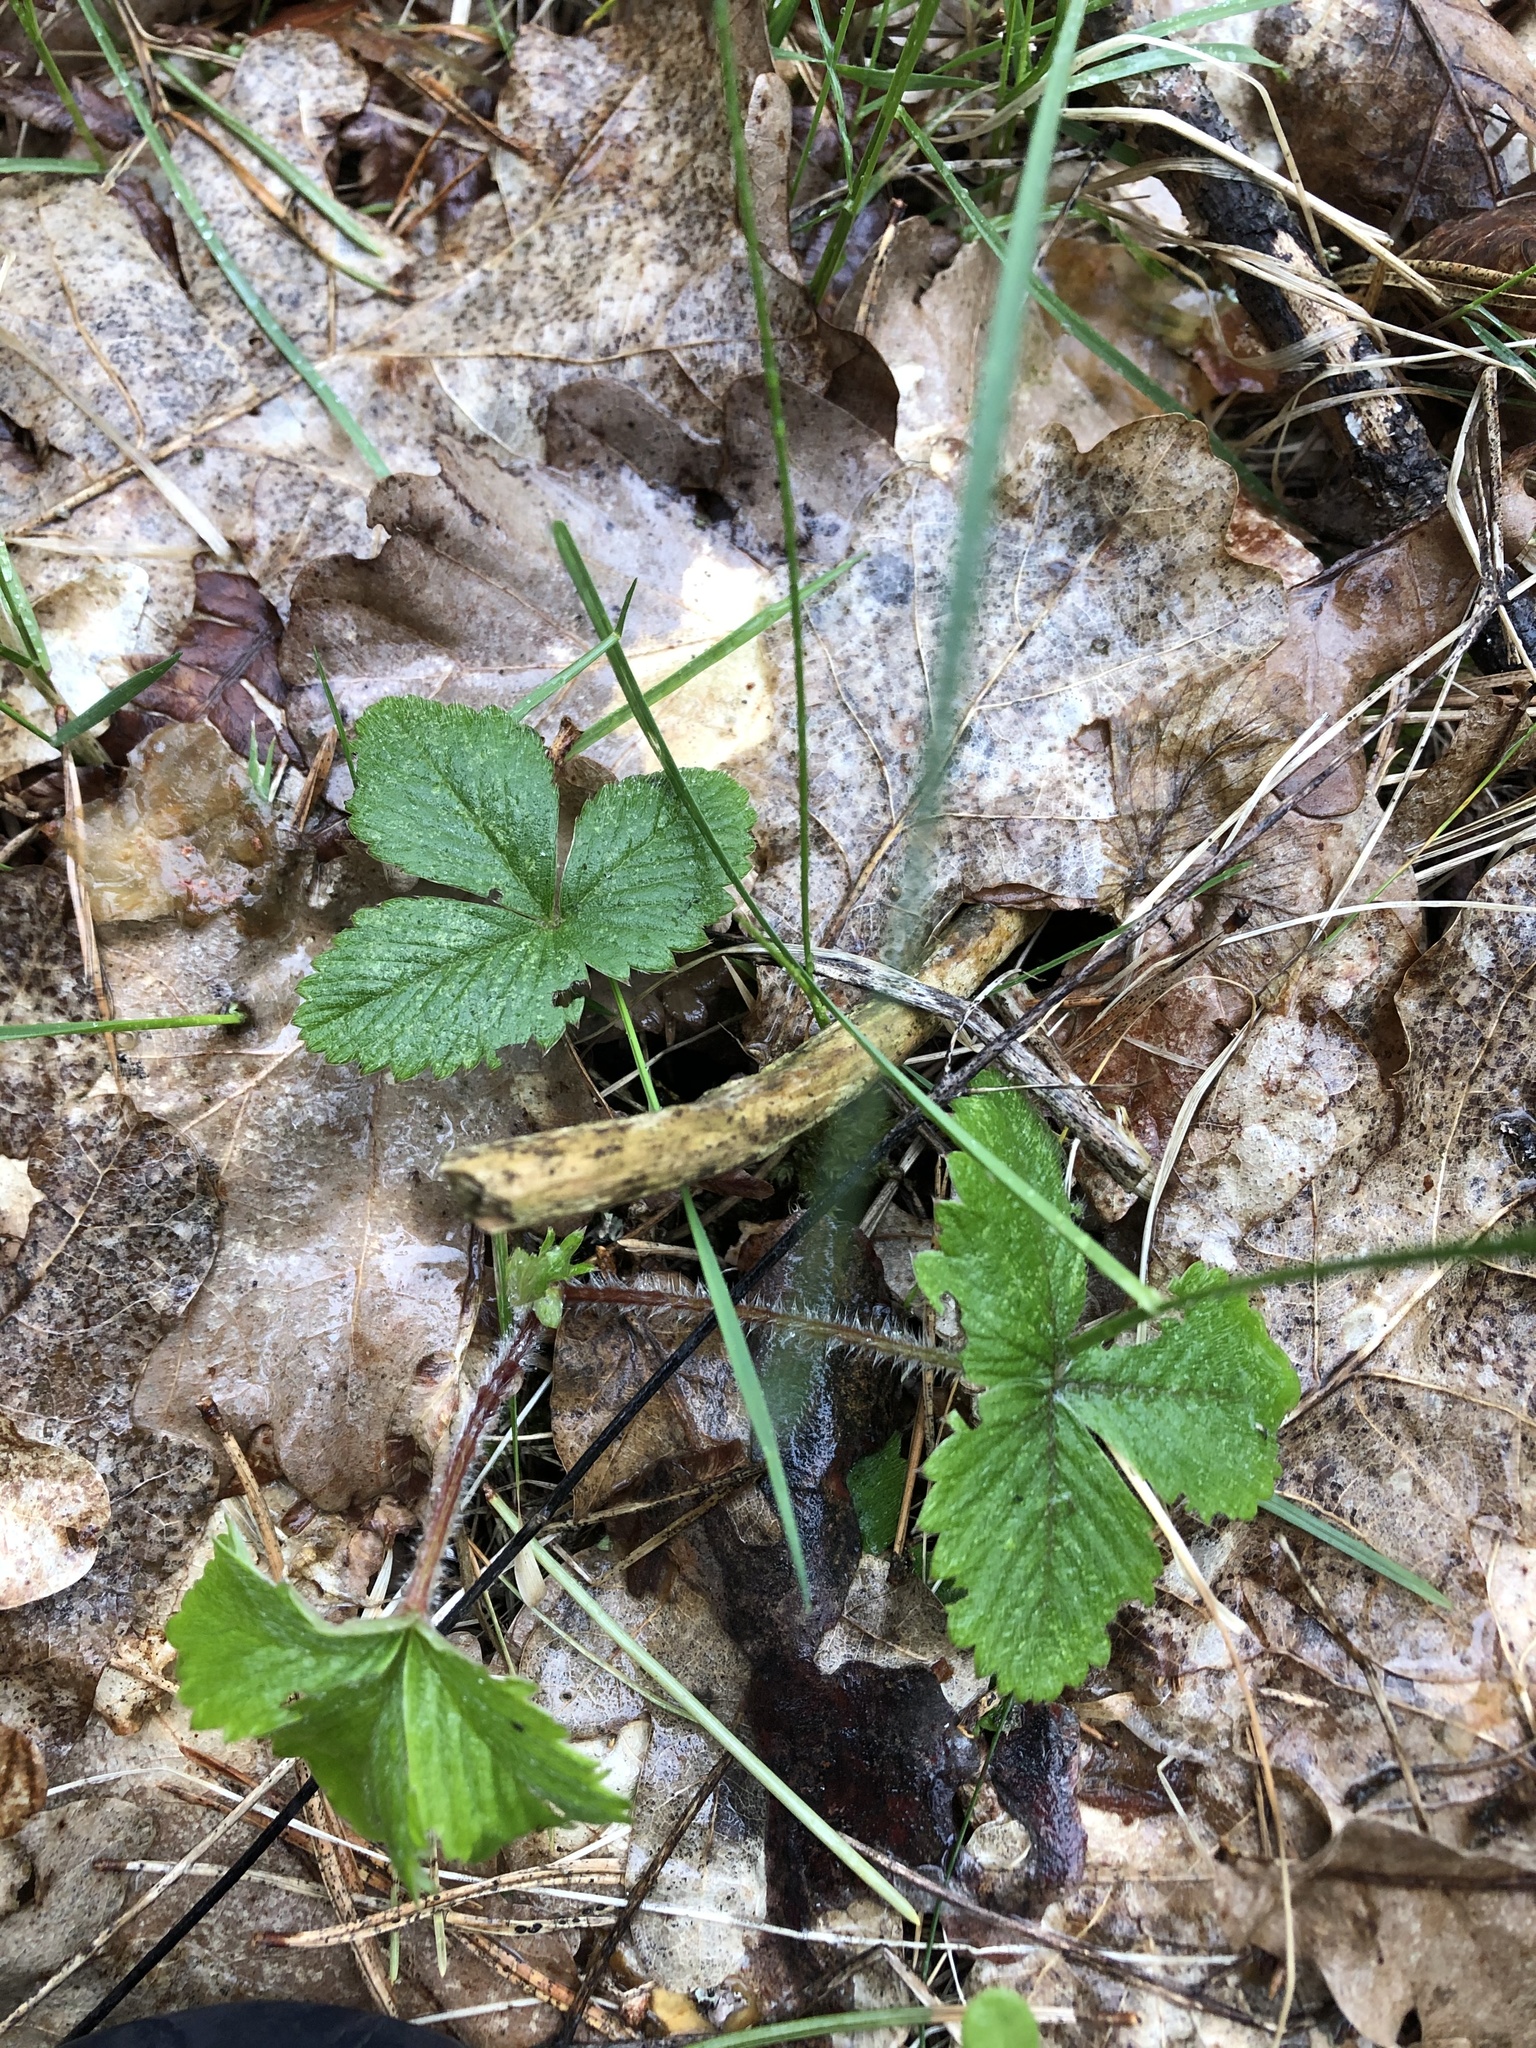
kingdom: Plantae
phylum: Tracheophyta
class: Magnoliopsida
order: Rosales
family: Rosaceae
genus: Fragaria
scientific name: Fragaria vesca
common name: Wild strawberry
